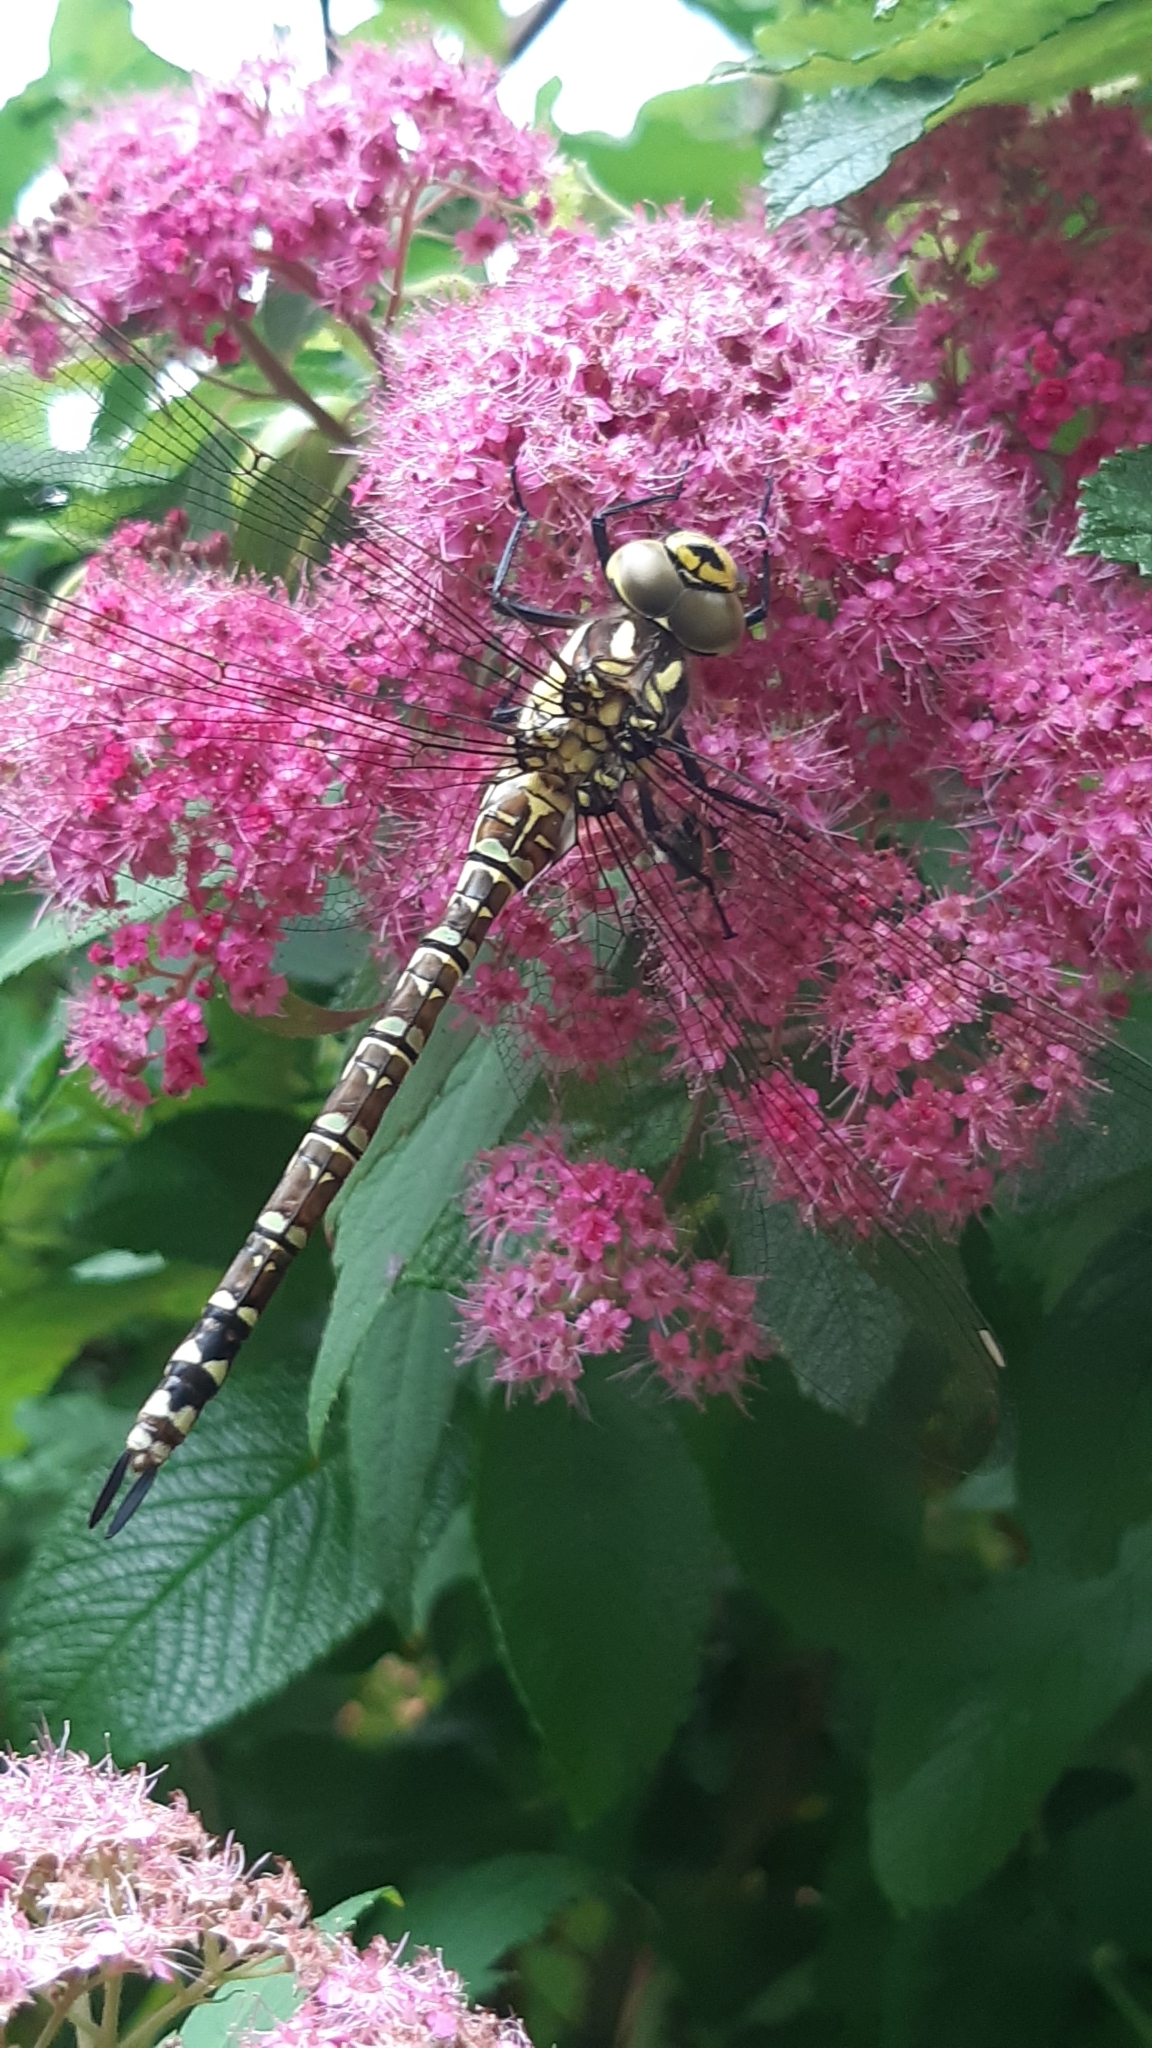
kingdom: Animalia
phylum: Arthropoda
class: Insecta
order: Odonata
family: Aeshnidae
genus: Aeshna
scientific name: Aeshna cyanea
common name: Southern hawker
